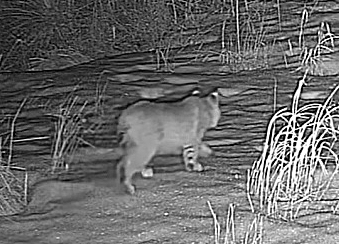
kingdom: Animalia
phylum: Chordata
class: Mammalia
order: Carnivora
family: Felidae
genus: Lynx
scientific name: Lynx rufus
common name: Bobcat
